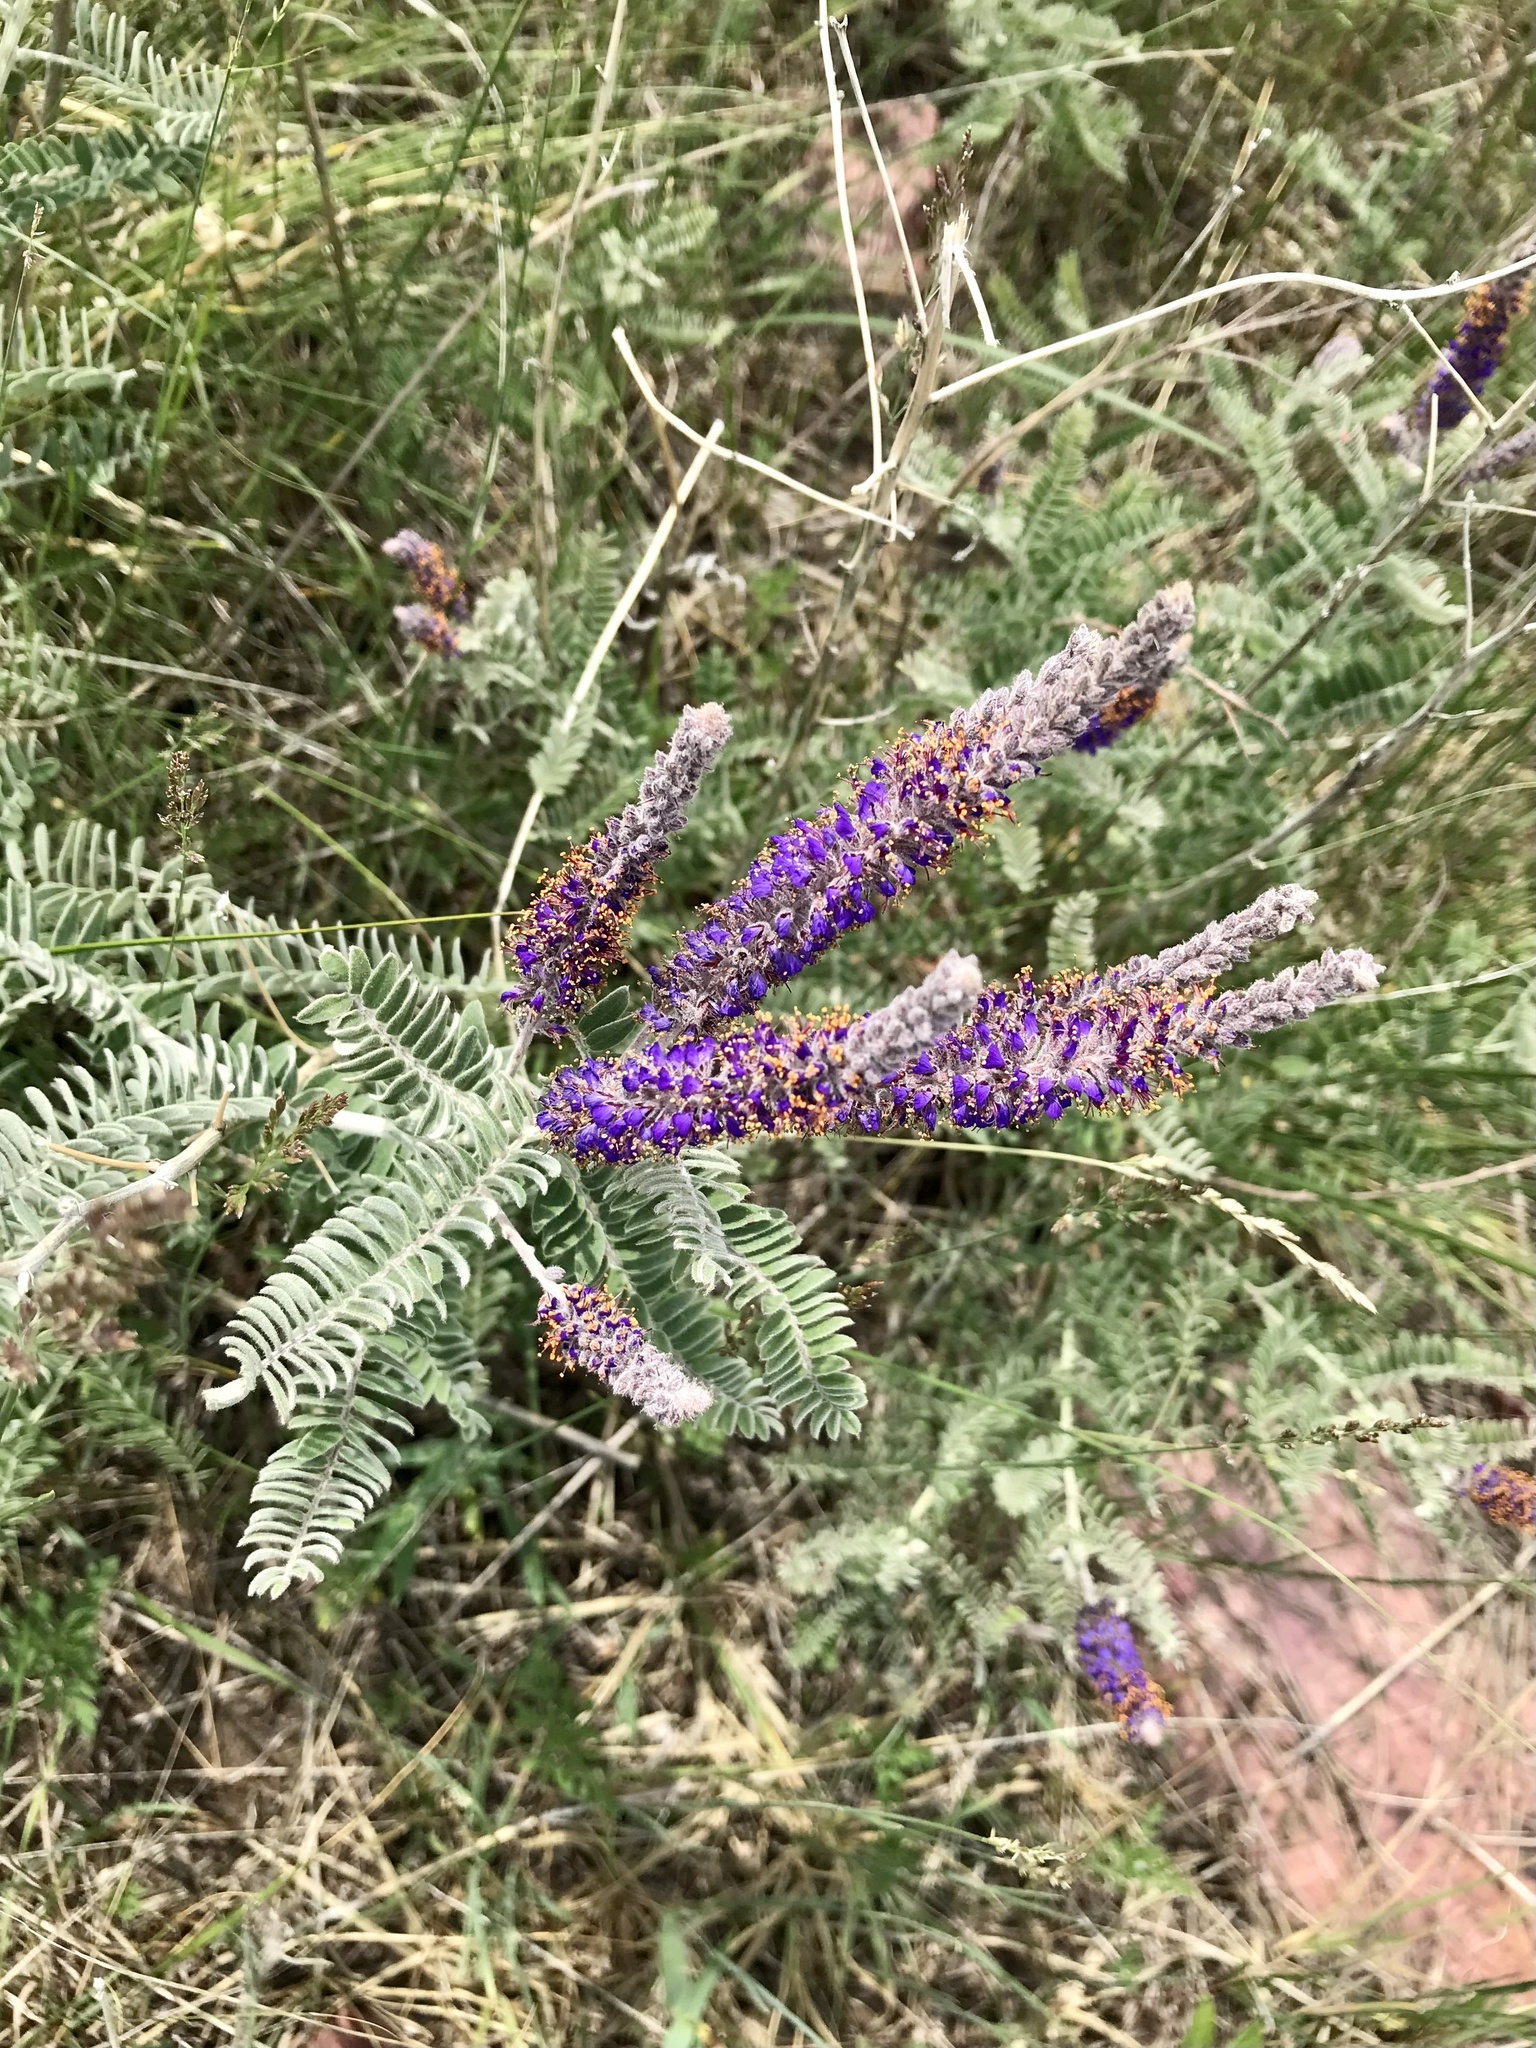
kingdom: Plantae
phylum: Tracheophyta
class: Magnoliopsida
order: Fabales
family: Fabaceae
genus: Amorpha
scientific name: Amorpha canescens
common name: Leadplant
